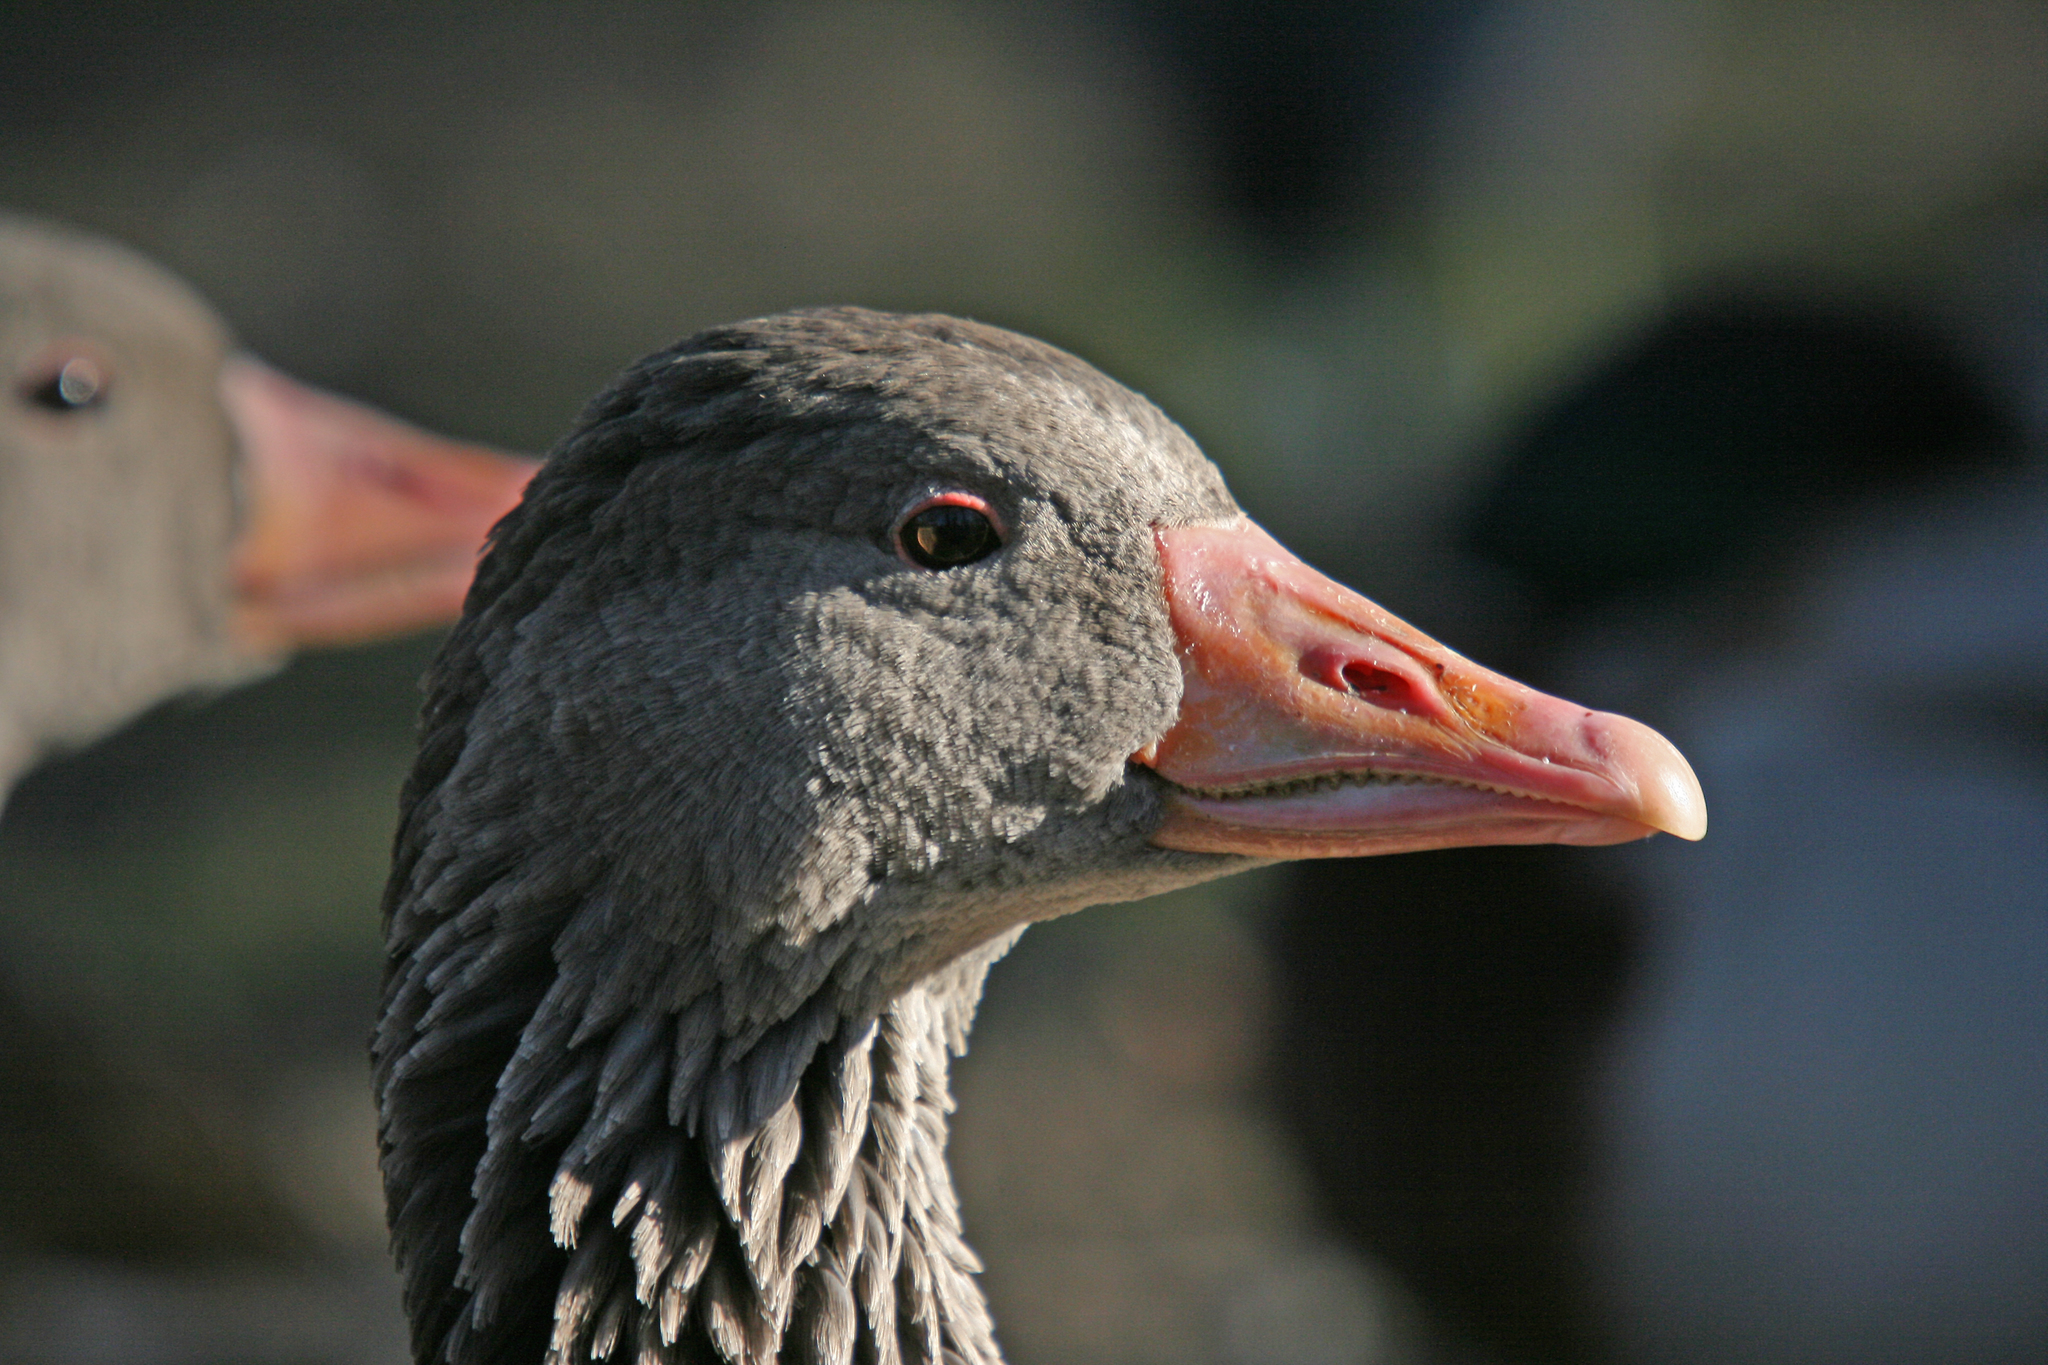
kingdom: Animalia
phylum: Chordata
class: Aves
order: Anseriformes
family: Anatidae
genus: Anser
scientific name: Anser anser
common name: Greylag goose
